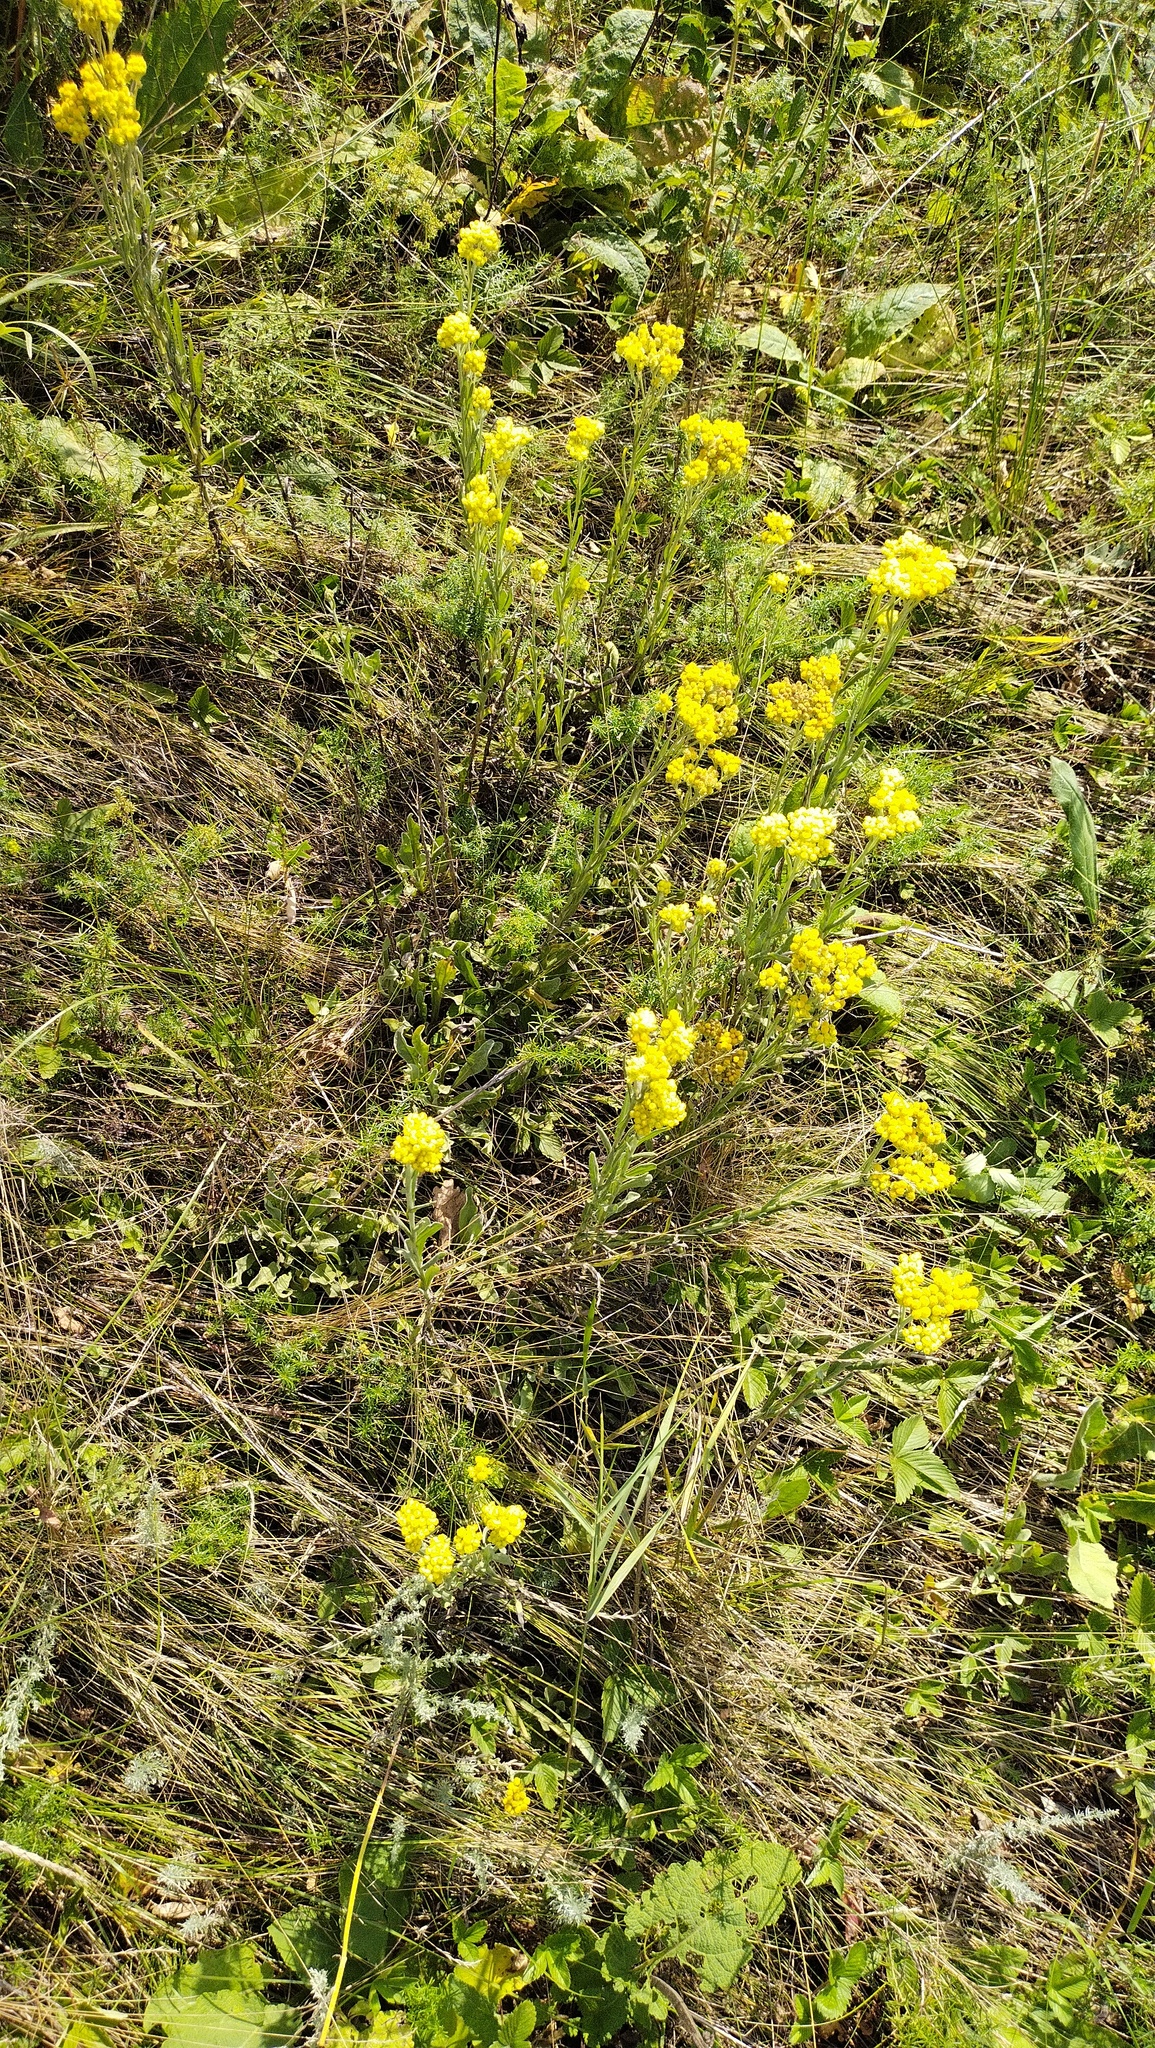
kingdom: Plantae
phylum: Tracheophyta
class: Magnoliopsida
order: Asterales
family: Asteraceae
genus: Helichrysum
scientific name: Helichrysum arenarium
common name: Strawflower
